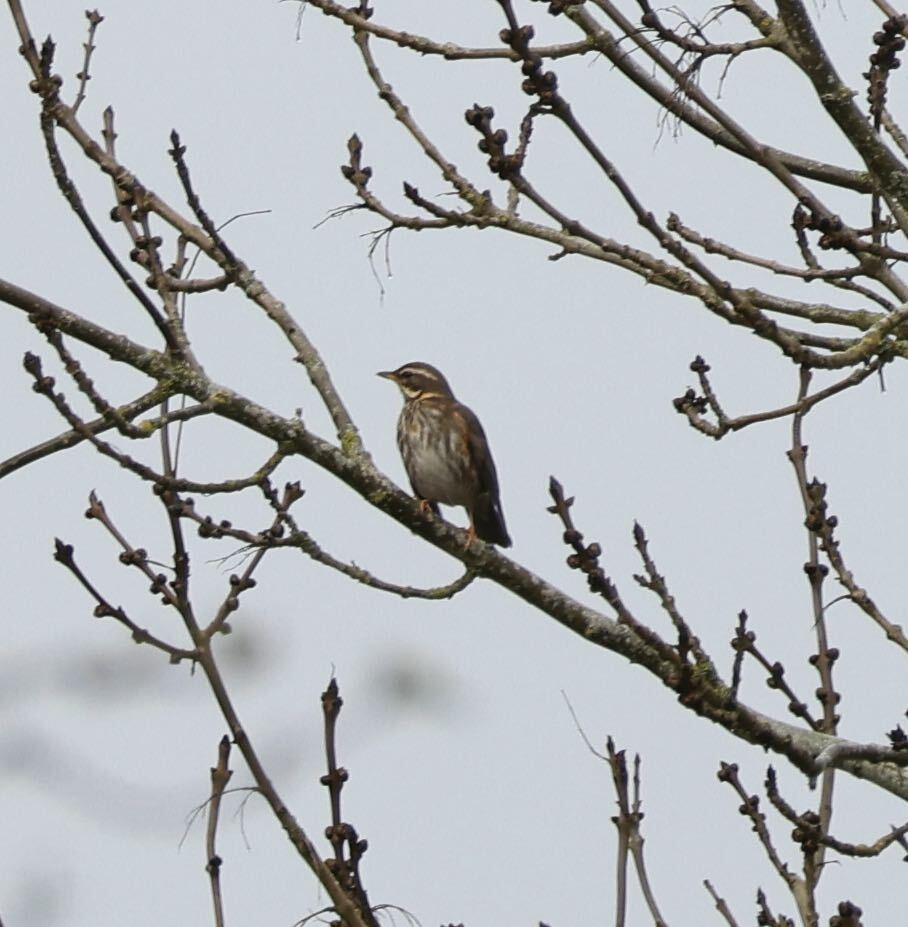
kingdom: Animalia
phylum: Chordata
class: Aves
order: Passeriformes
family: Turdidae
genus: Turdus
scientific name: Turdus iliacus
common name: Redwing
